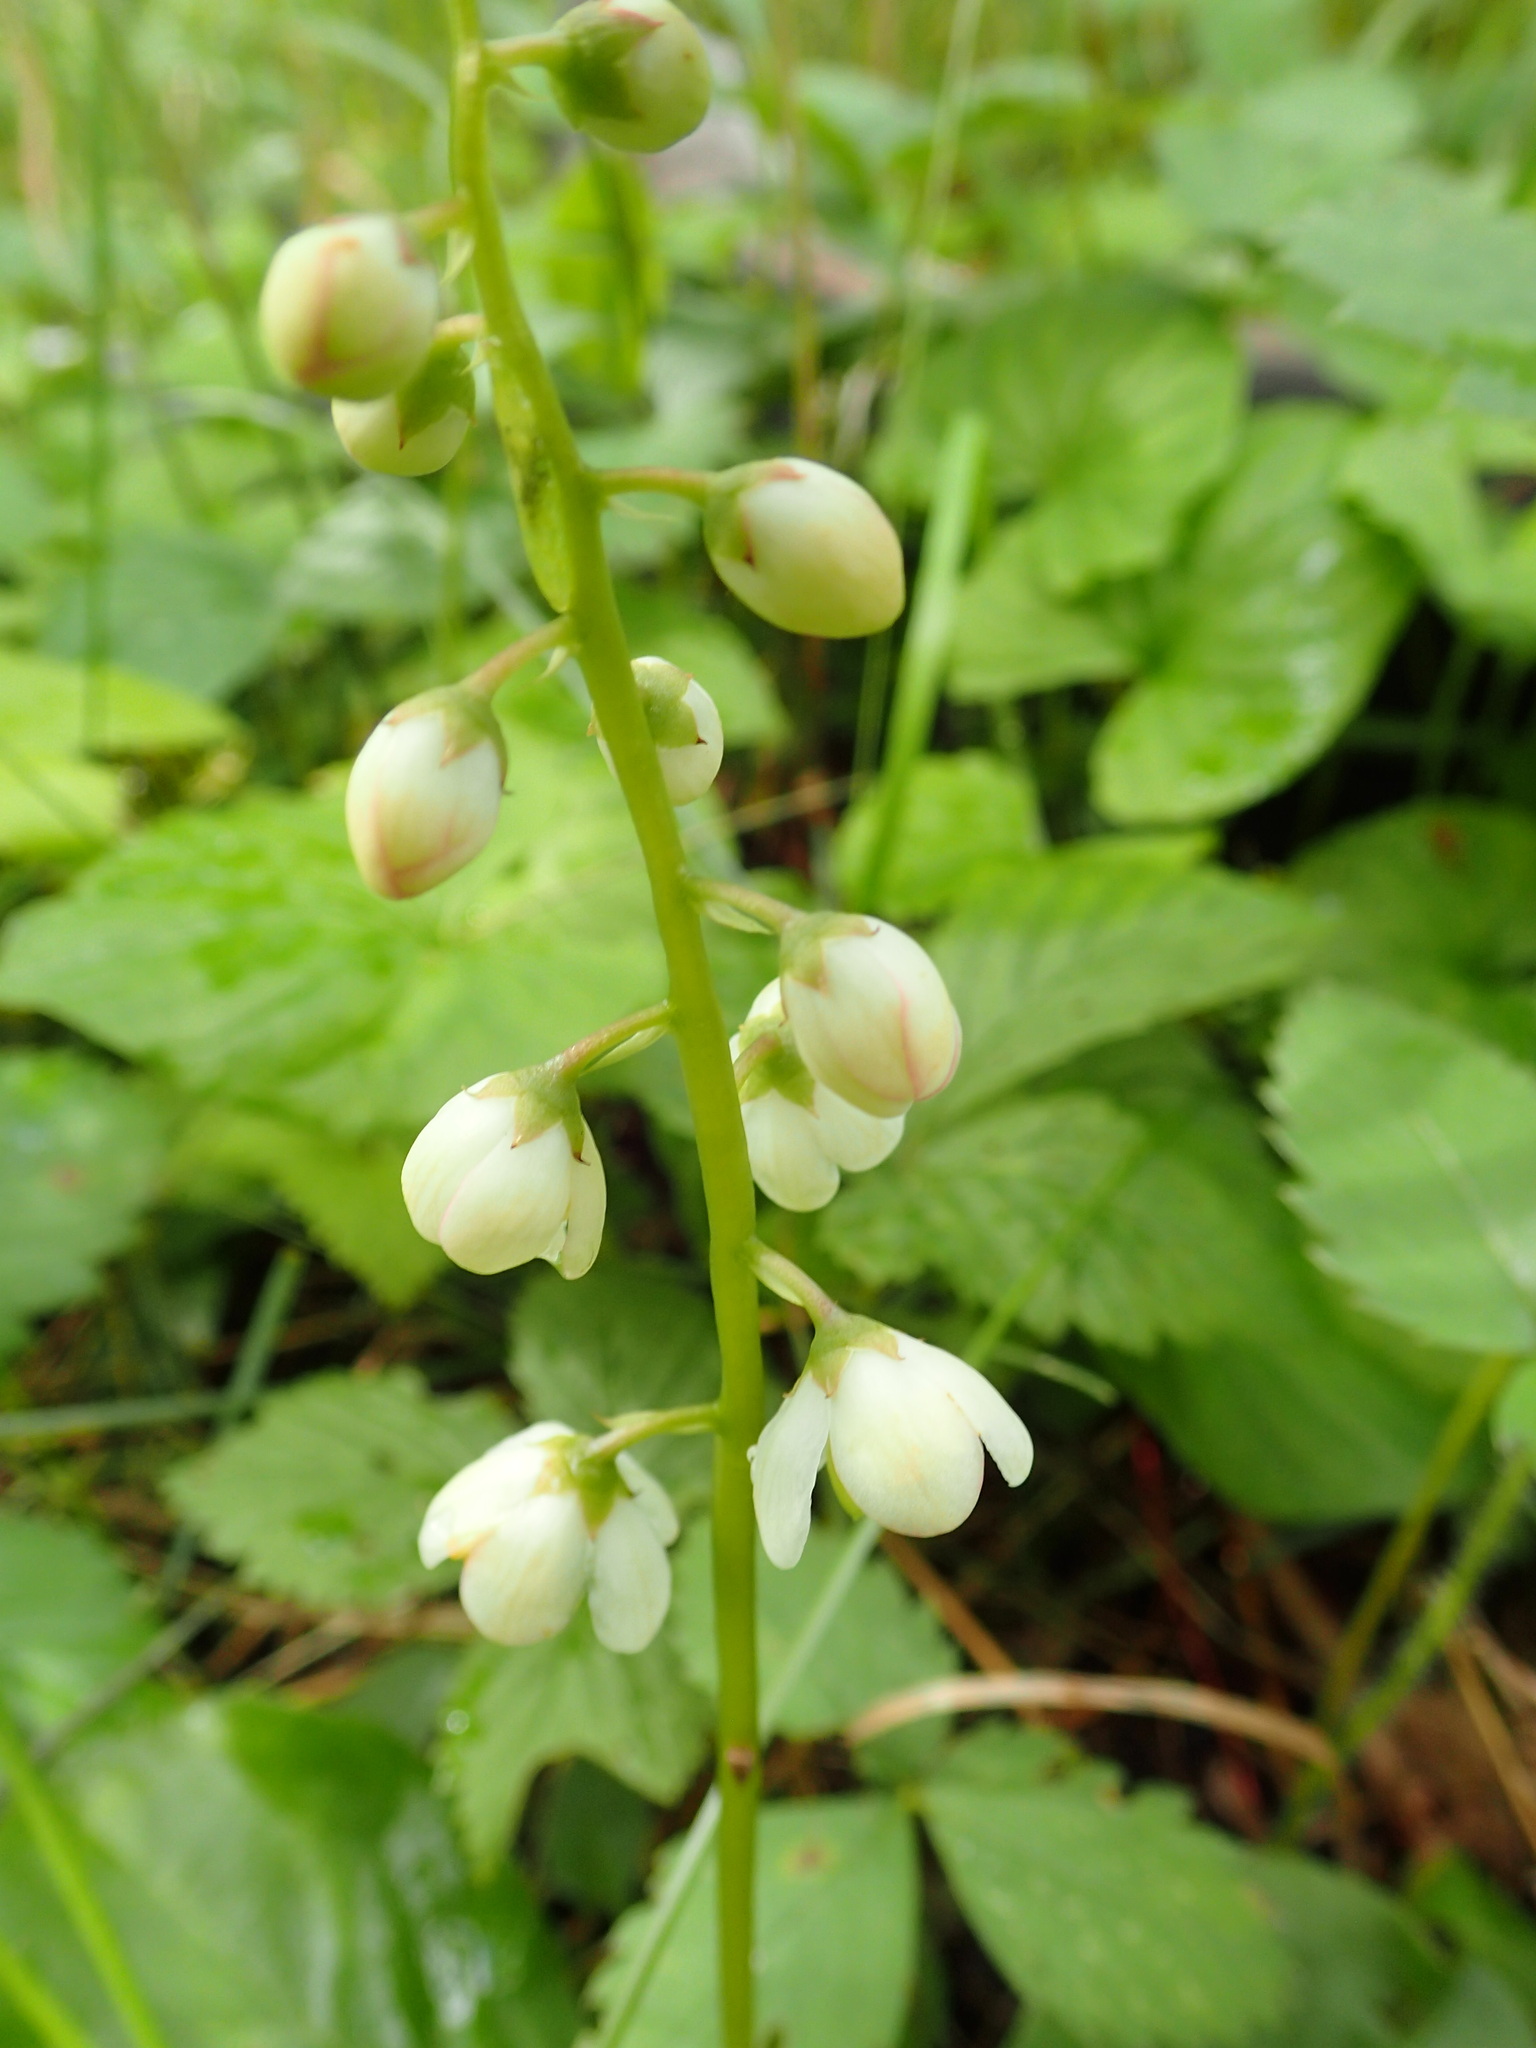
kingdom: Plantae
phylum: Tracheophyta
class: Magnoliopsida
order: Ericales
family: Ericaceae
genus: Pyrola
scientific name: Pyrola elliptica
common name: Shinleaf
